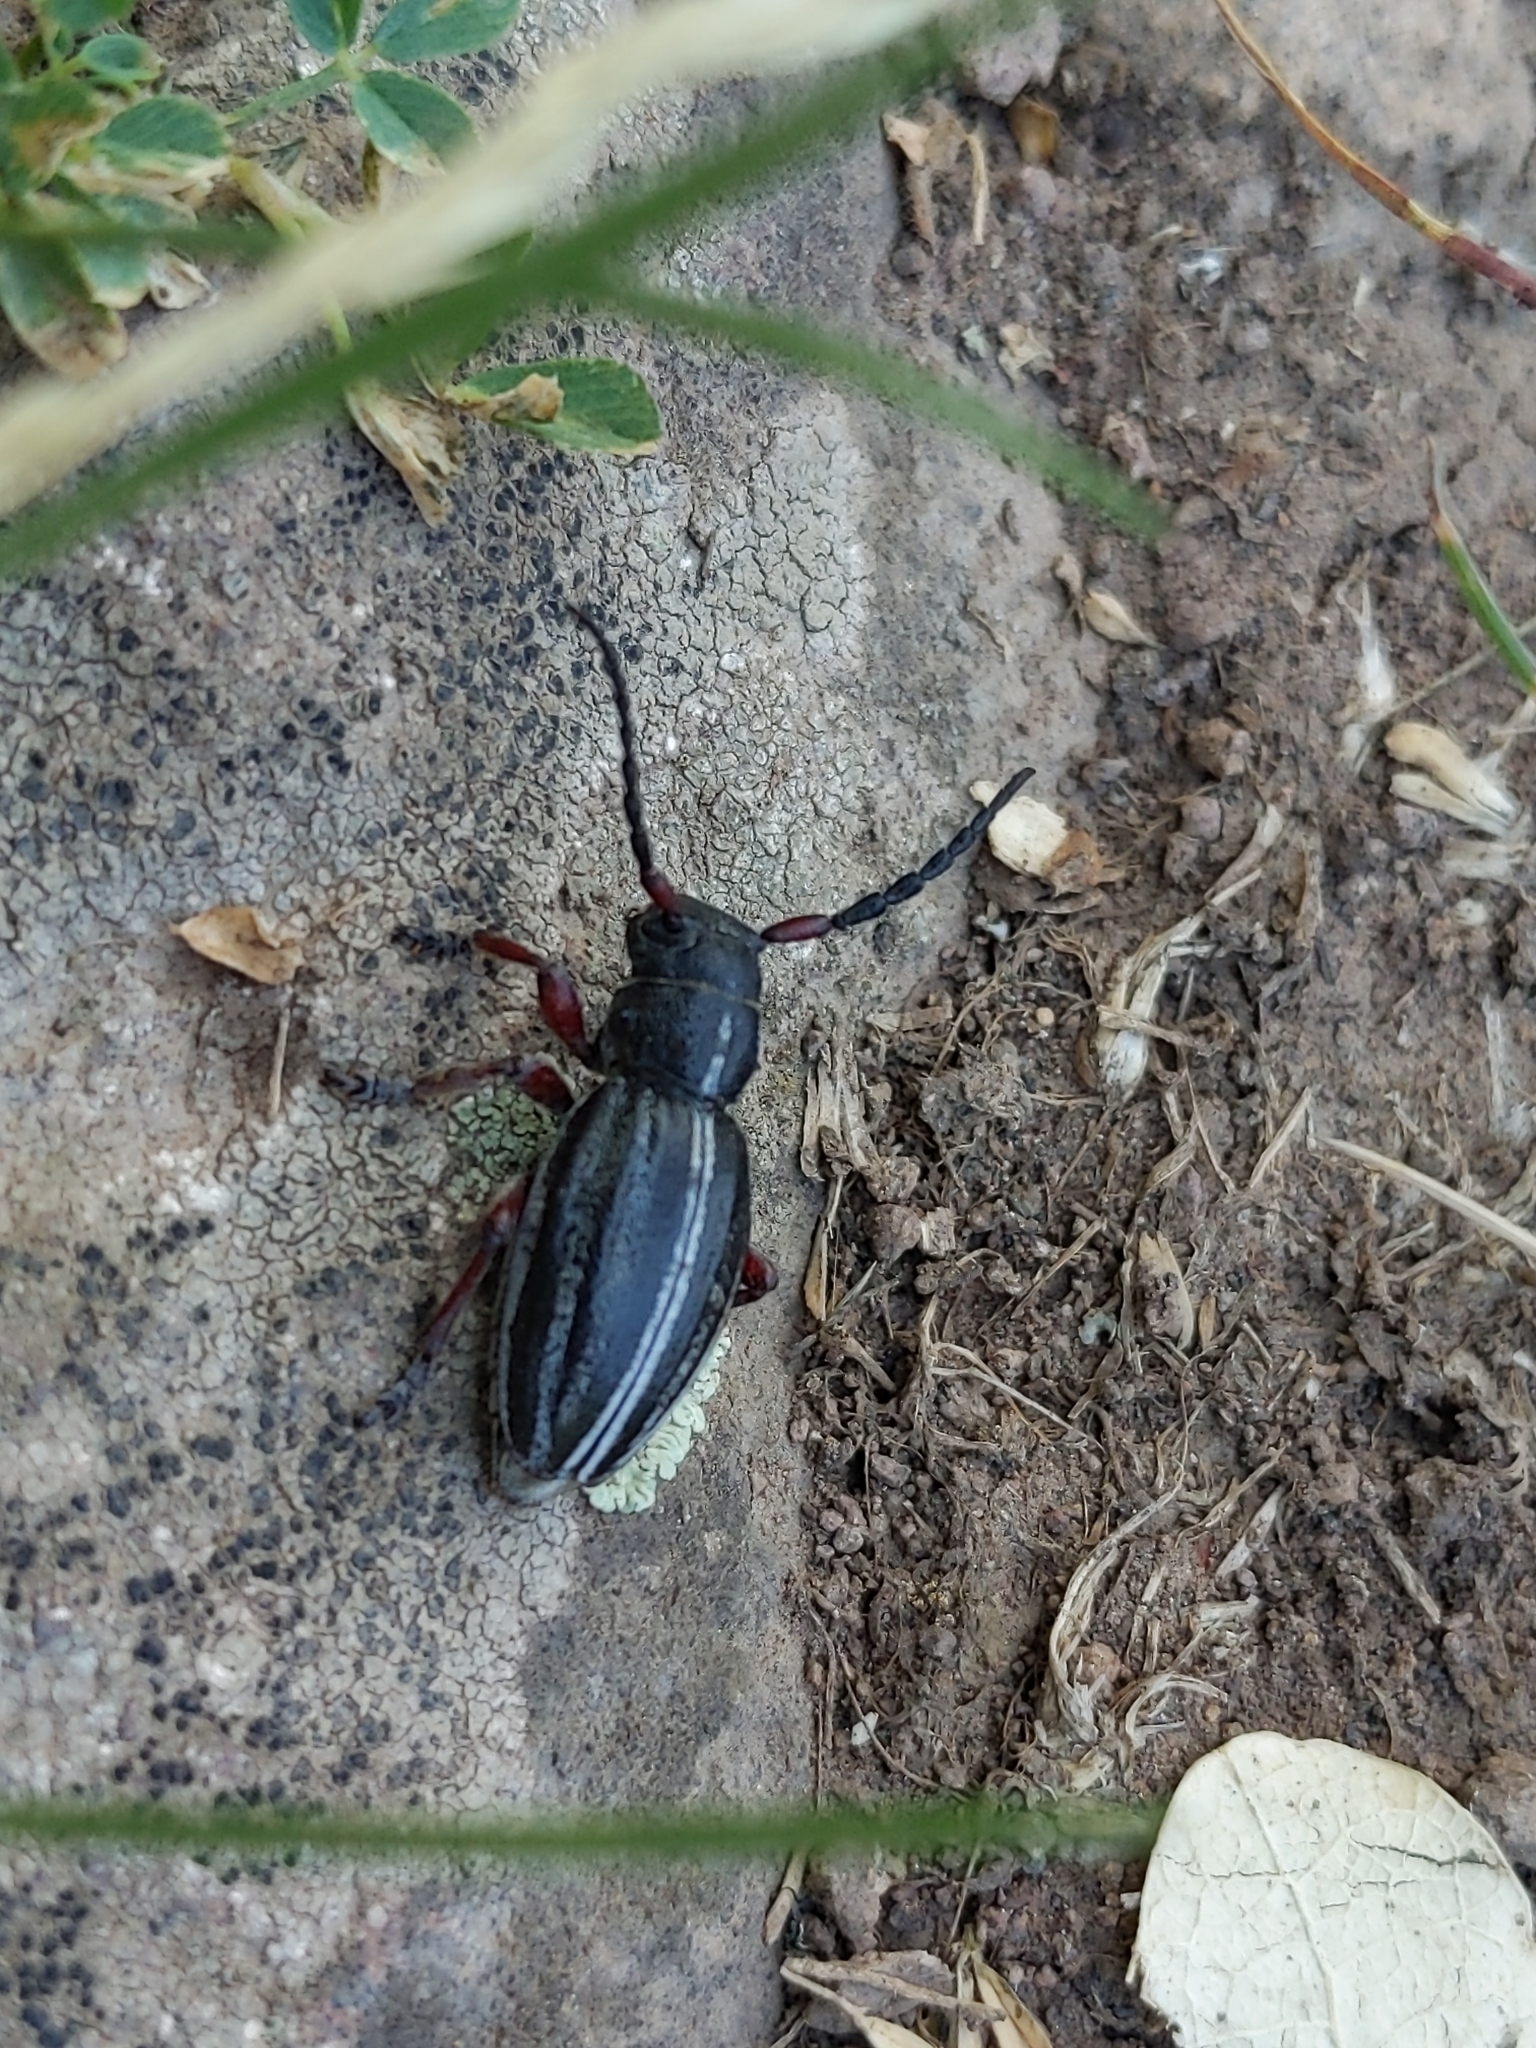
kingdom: Animalia
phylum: Arthropoda
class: Insecta
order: Coleoptera
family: Cerambycidae
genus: Dorcadion
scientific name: Dorcadion pedestre
